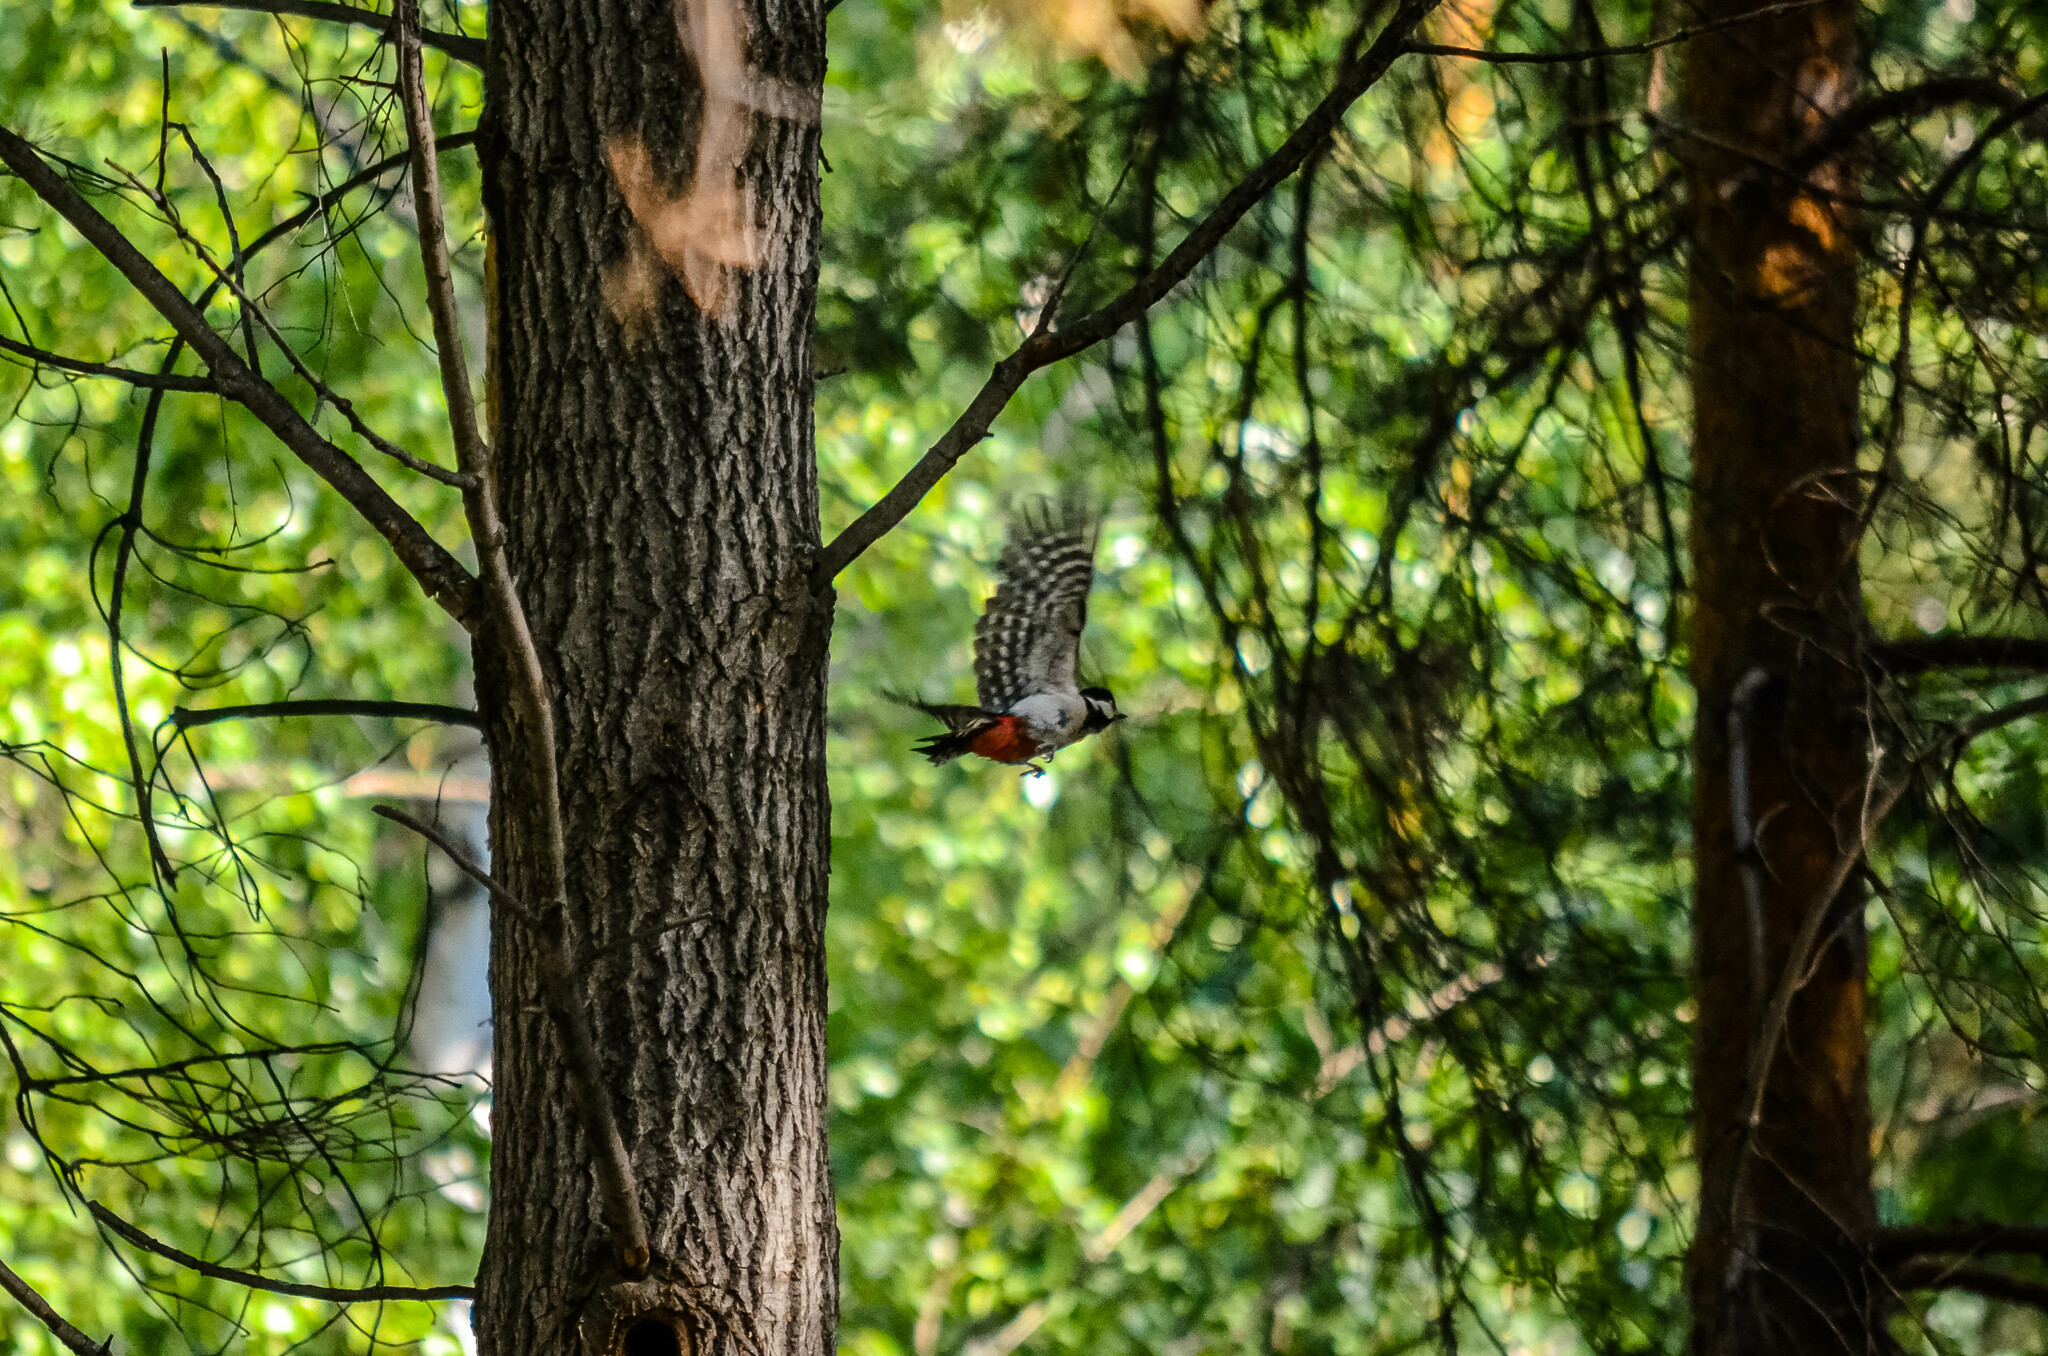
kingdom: Animalia
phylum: Chordata
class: Aves
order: Piciformes
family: Picidae
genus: Dendrocopos
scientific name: Dendrocopos major
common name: Great spotted woodpecker
